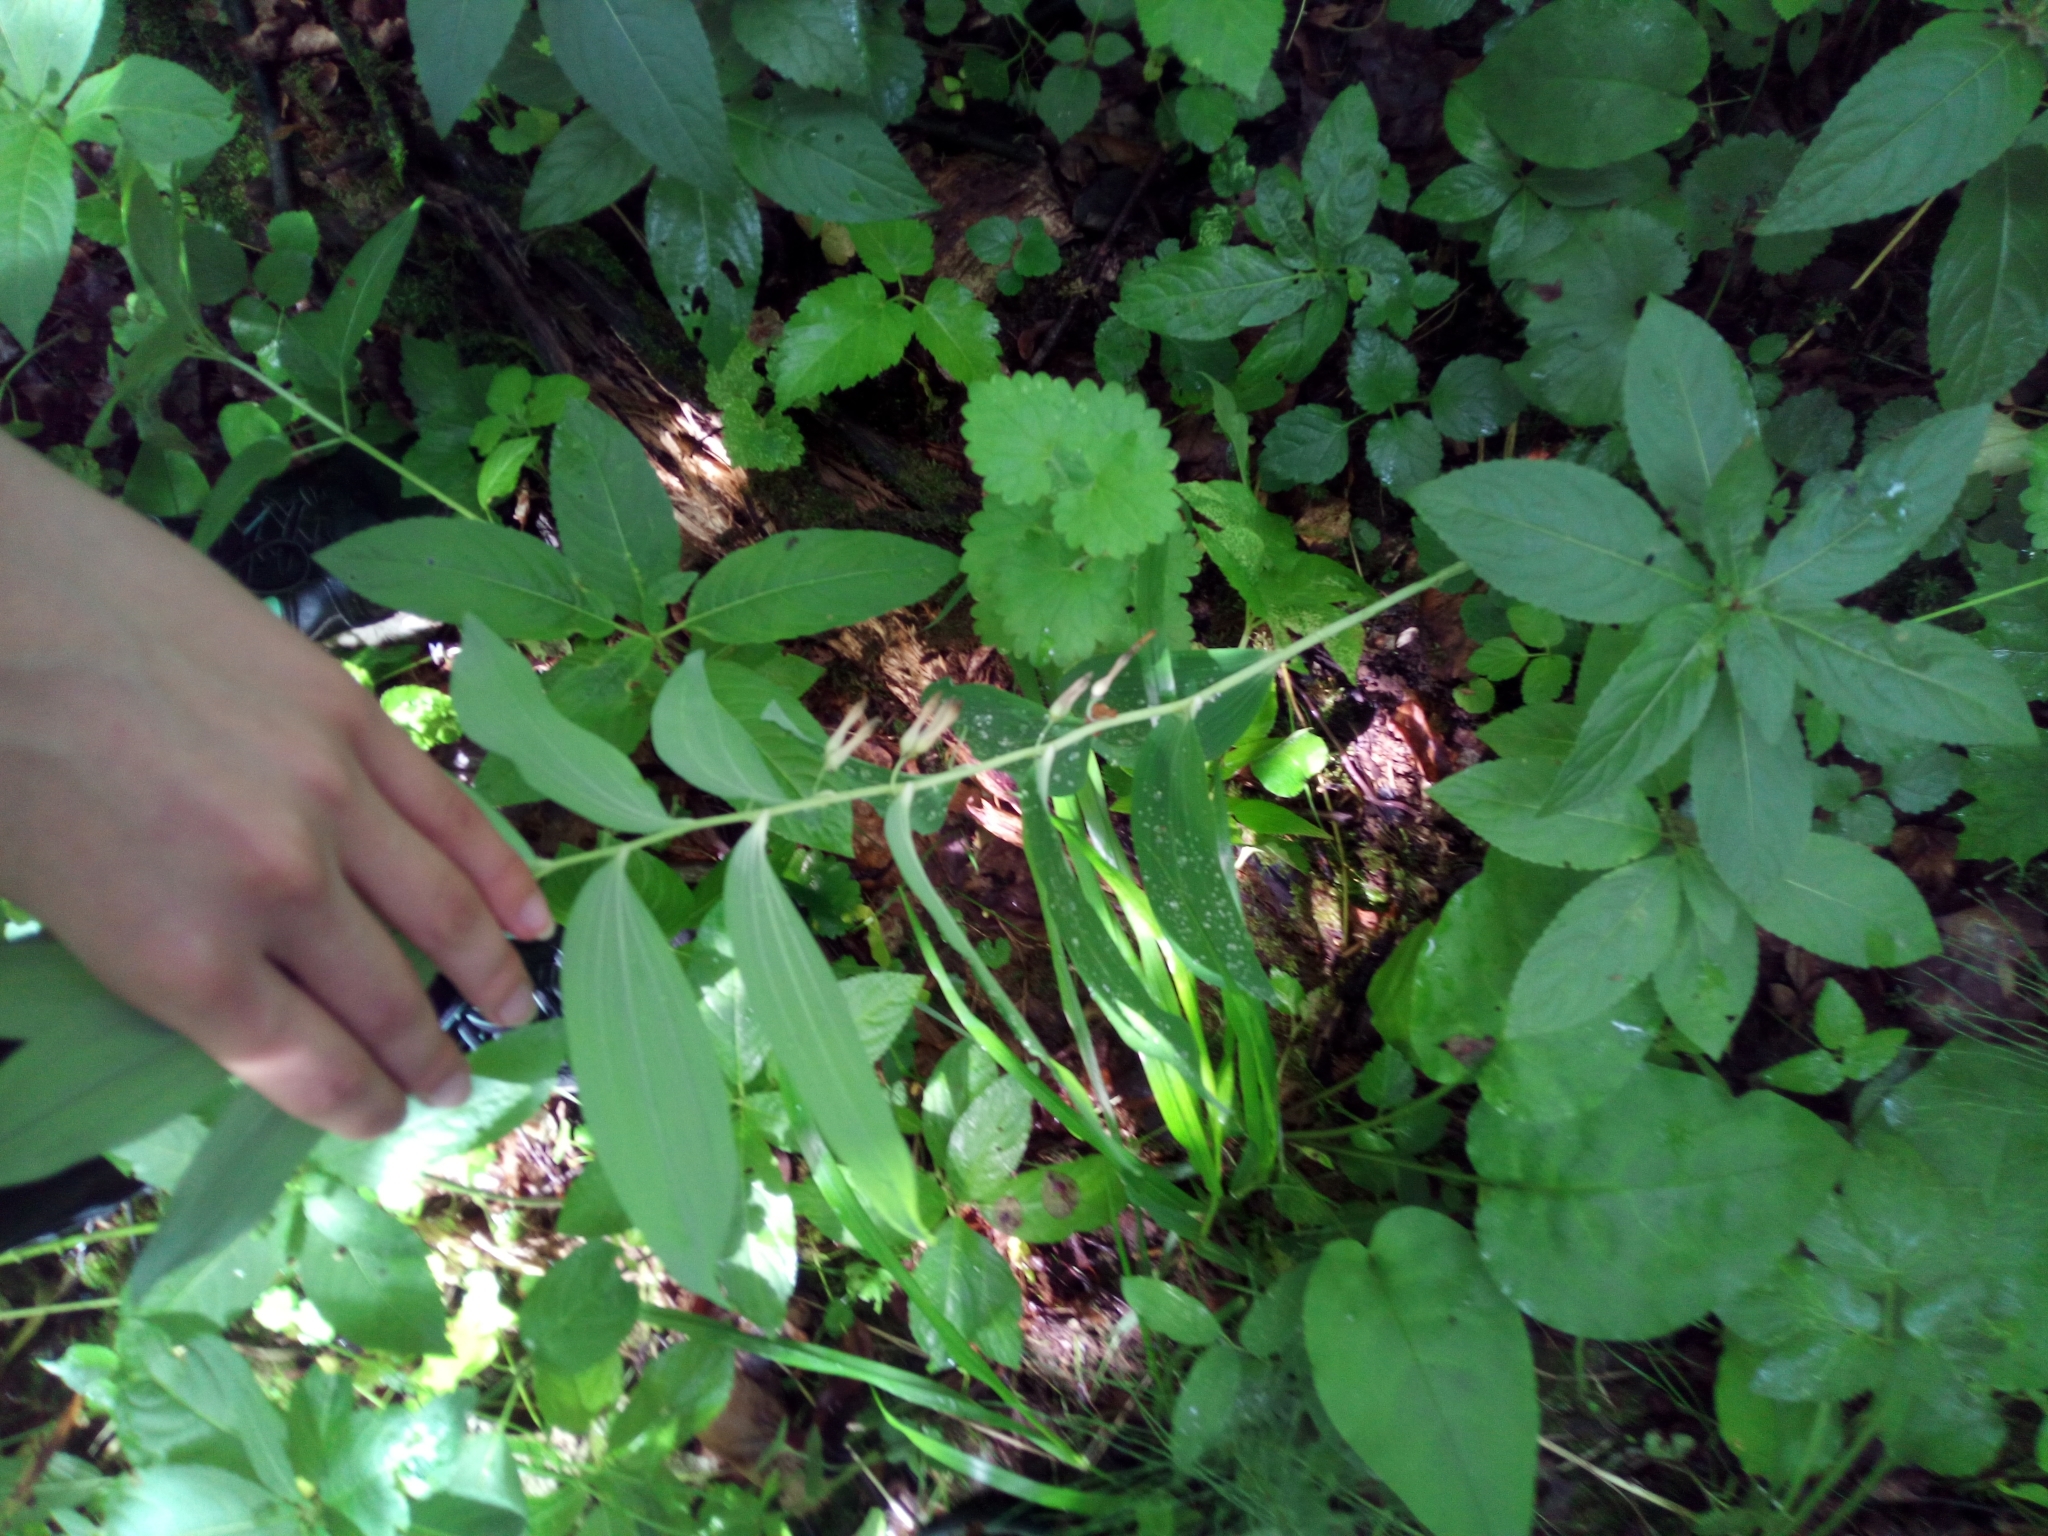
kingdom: Plantae
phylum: Tracheophyta
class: Liliopsida
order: Asparagales
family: Asparagaceae
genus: Polygonatum
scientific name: Polygonatum multiflorum
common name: Solomon's-seal
